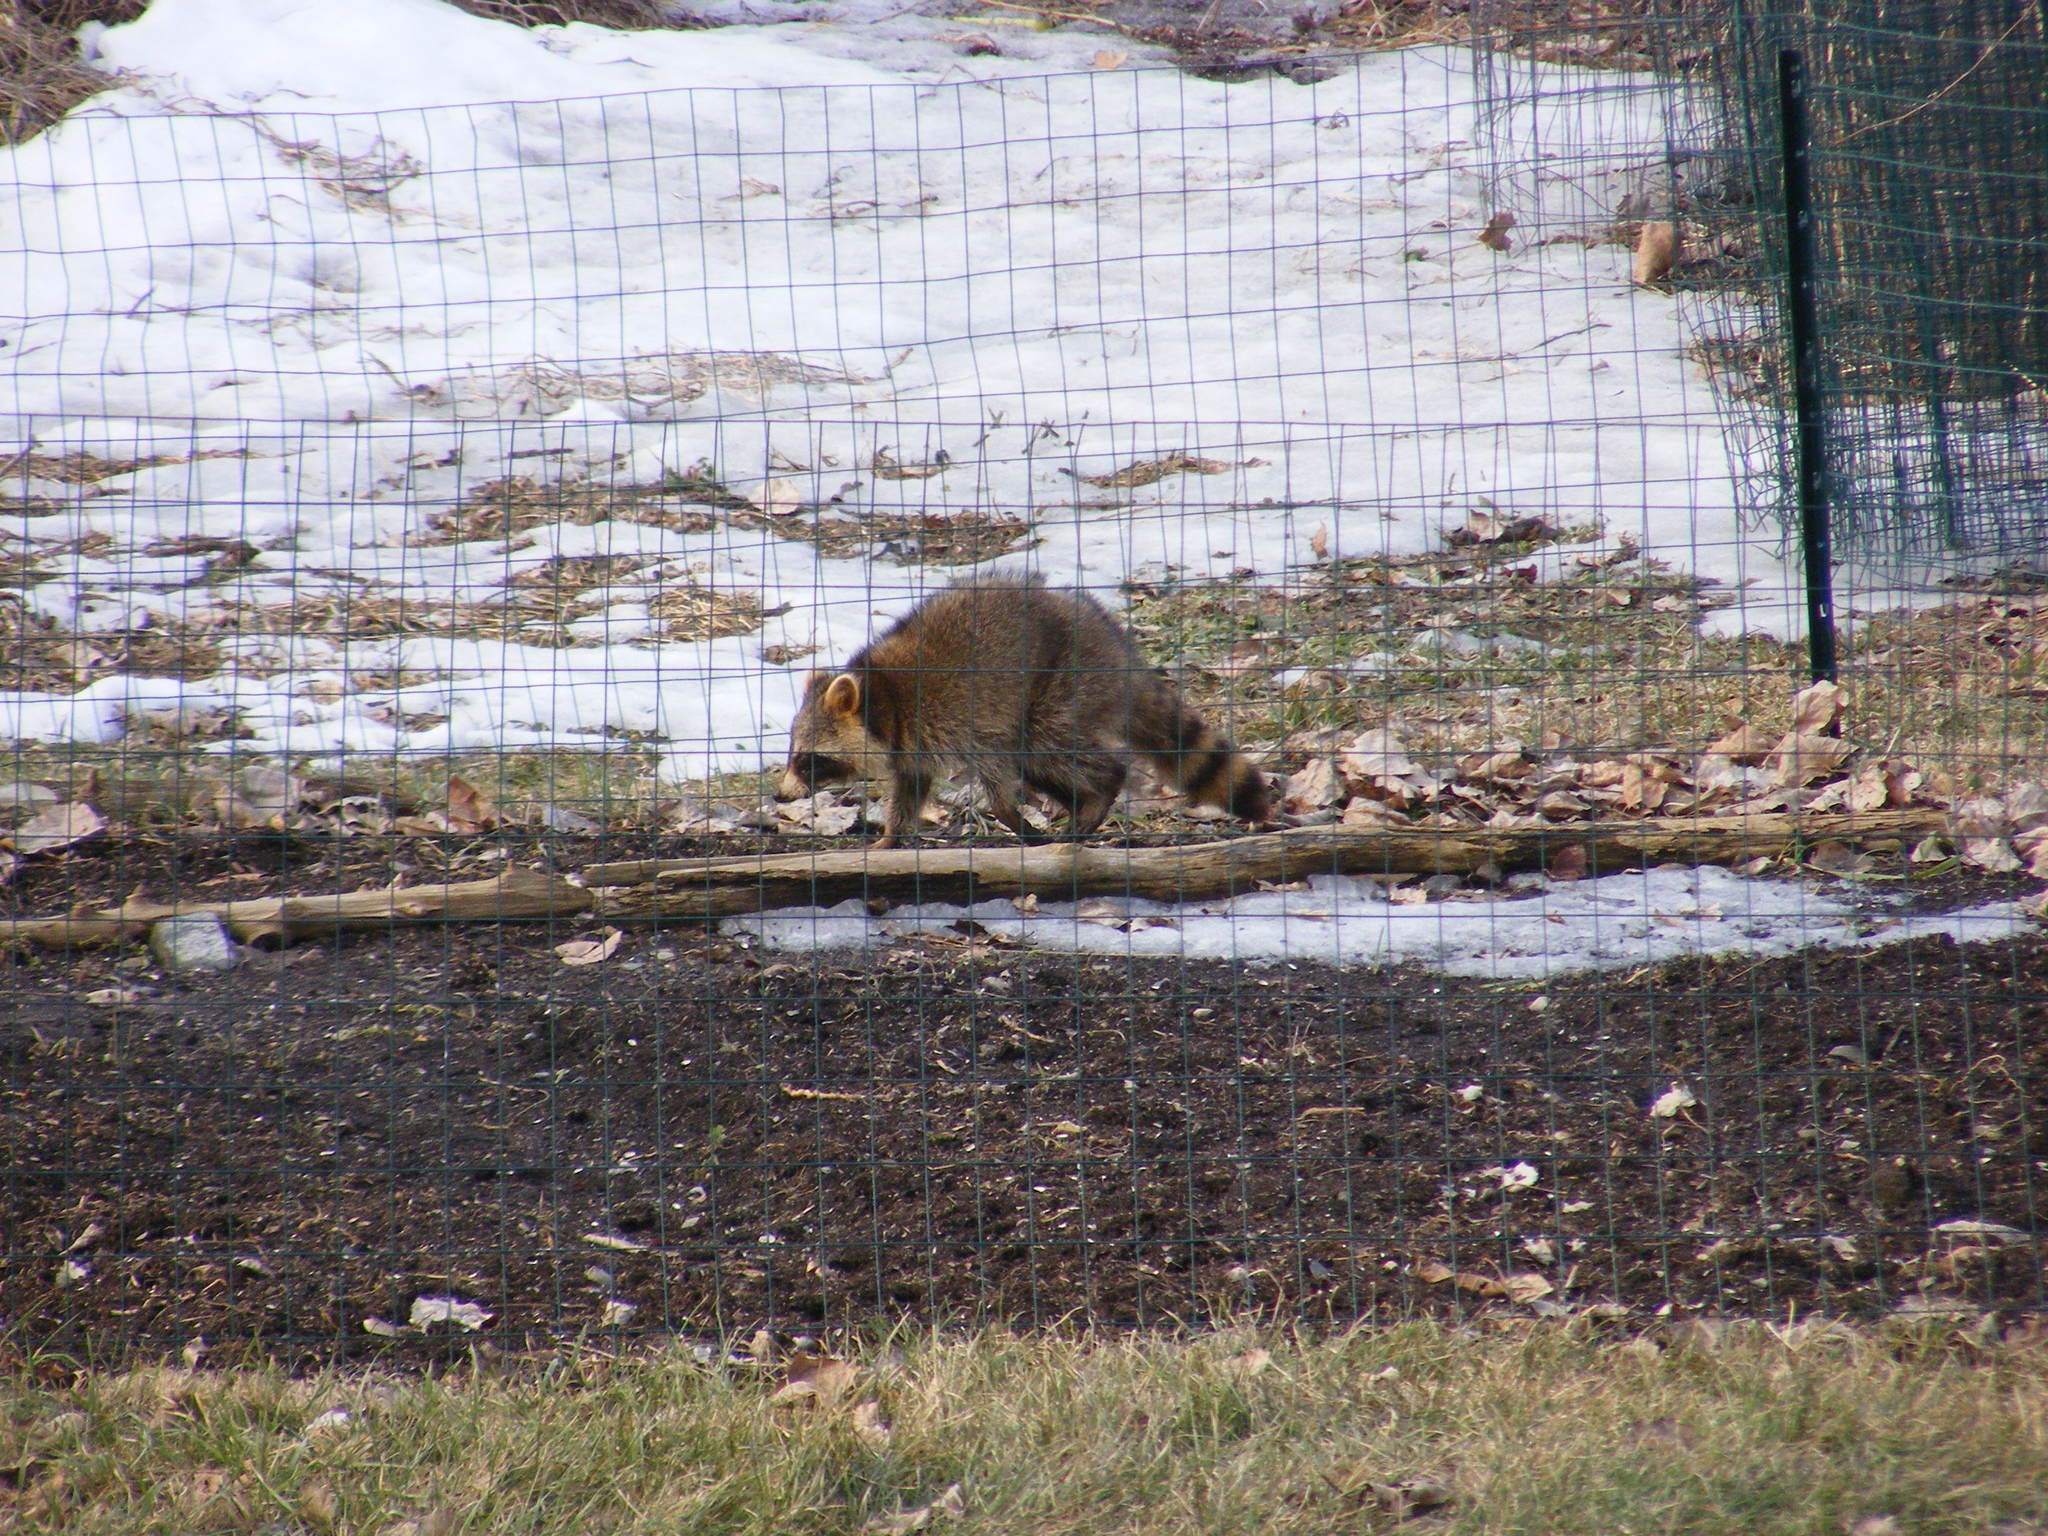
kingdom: Animalia
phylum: Chordata
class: Mammalia
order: Carnivora
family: Procyonidae
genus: Procyon
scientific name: Procyon lotor
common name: Raccoon
